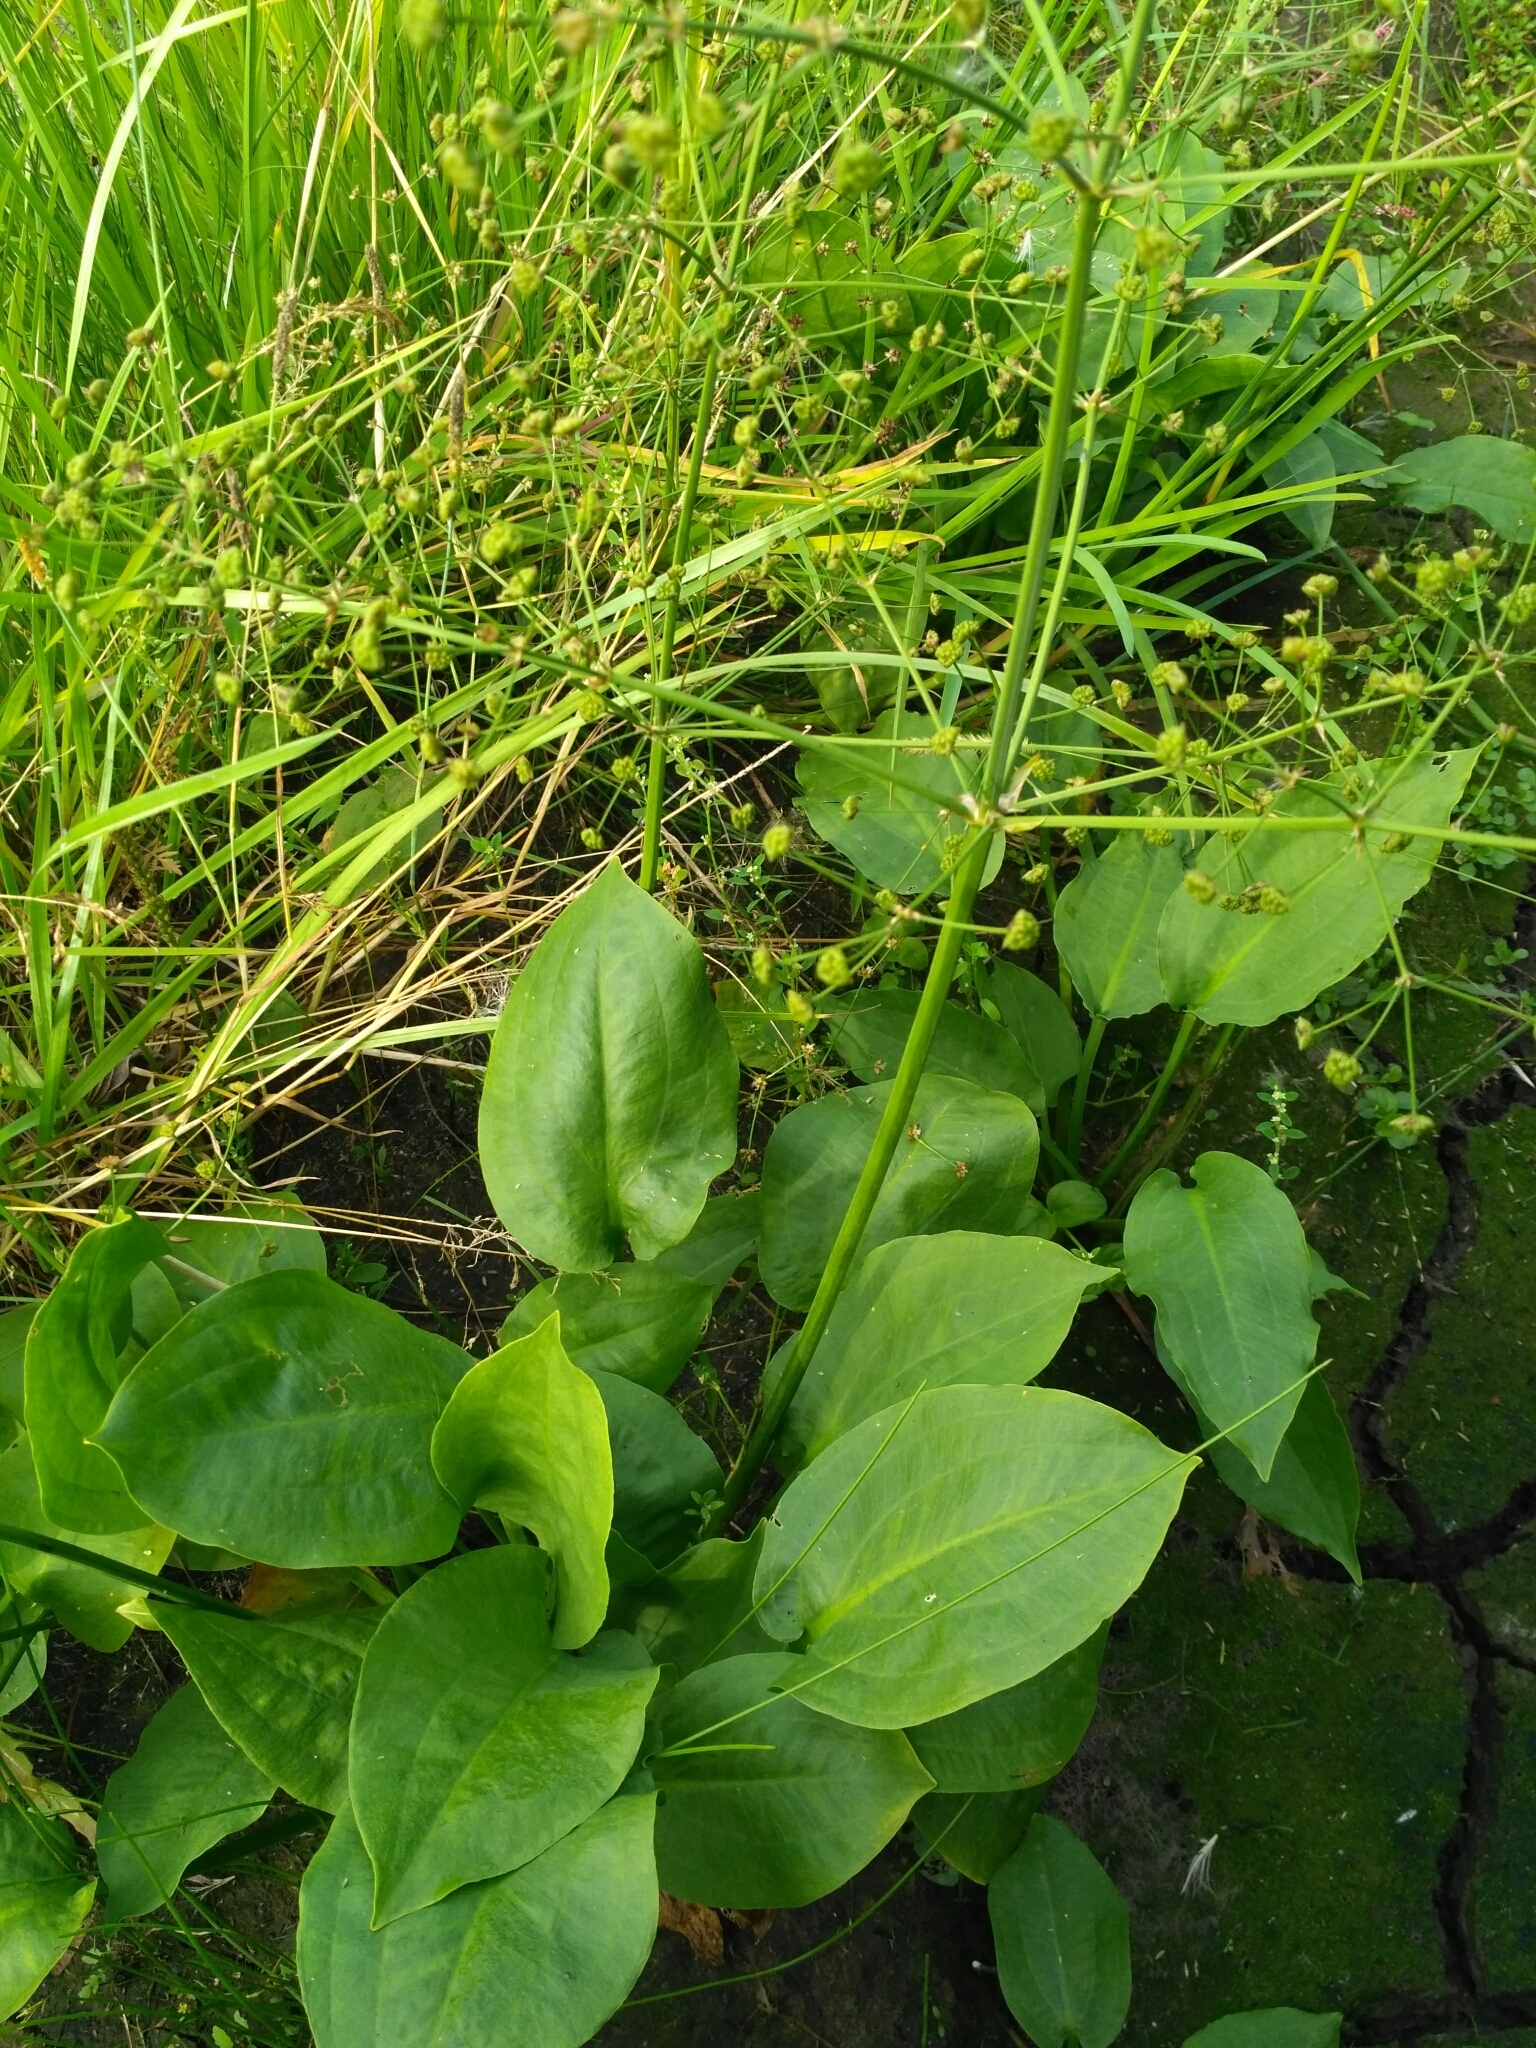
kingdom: Plantae
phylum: Tracheophyta
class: Liliopsida
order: Alismatales
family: Alismataceae
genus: Alisma
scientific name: Alisma plantago-aquatica
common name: Water-plantain
